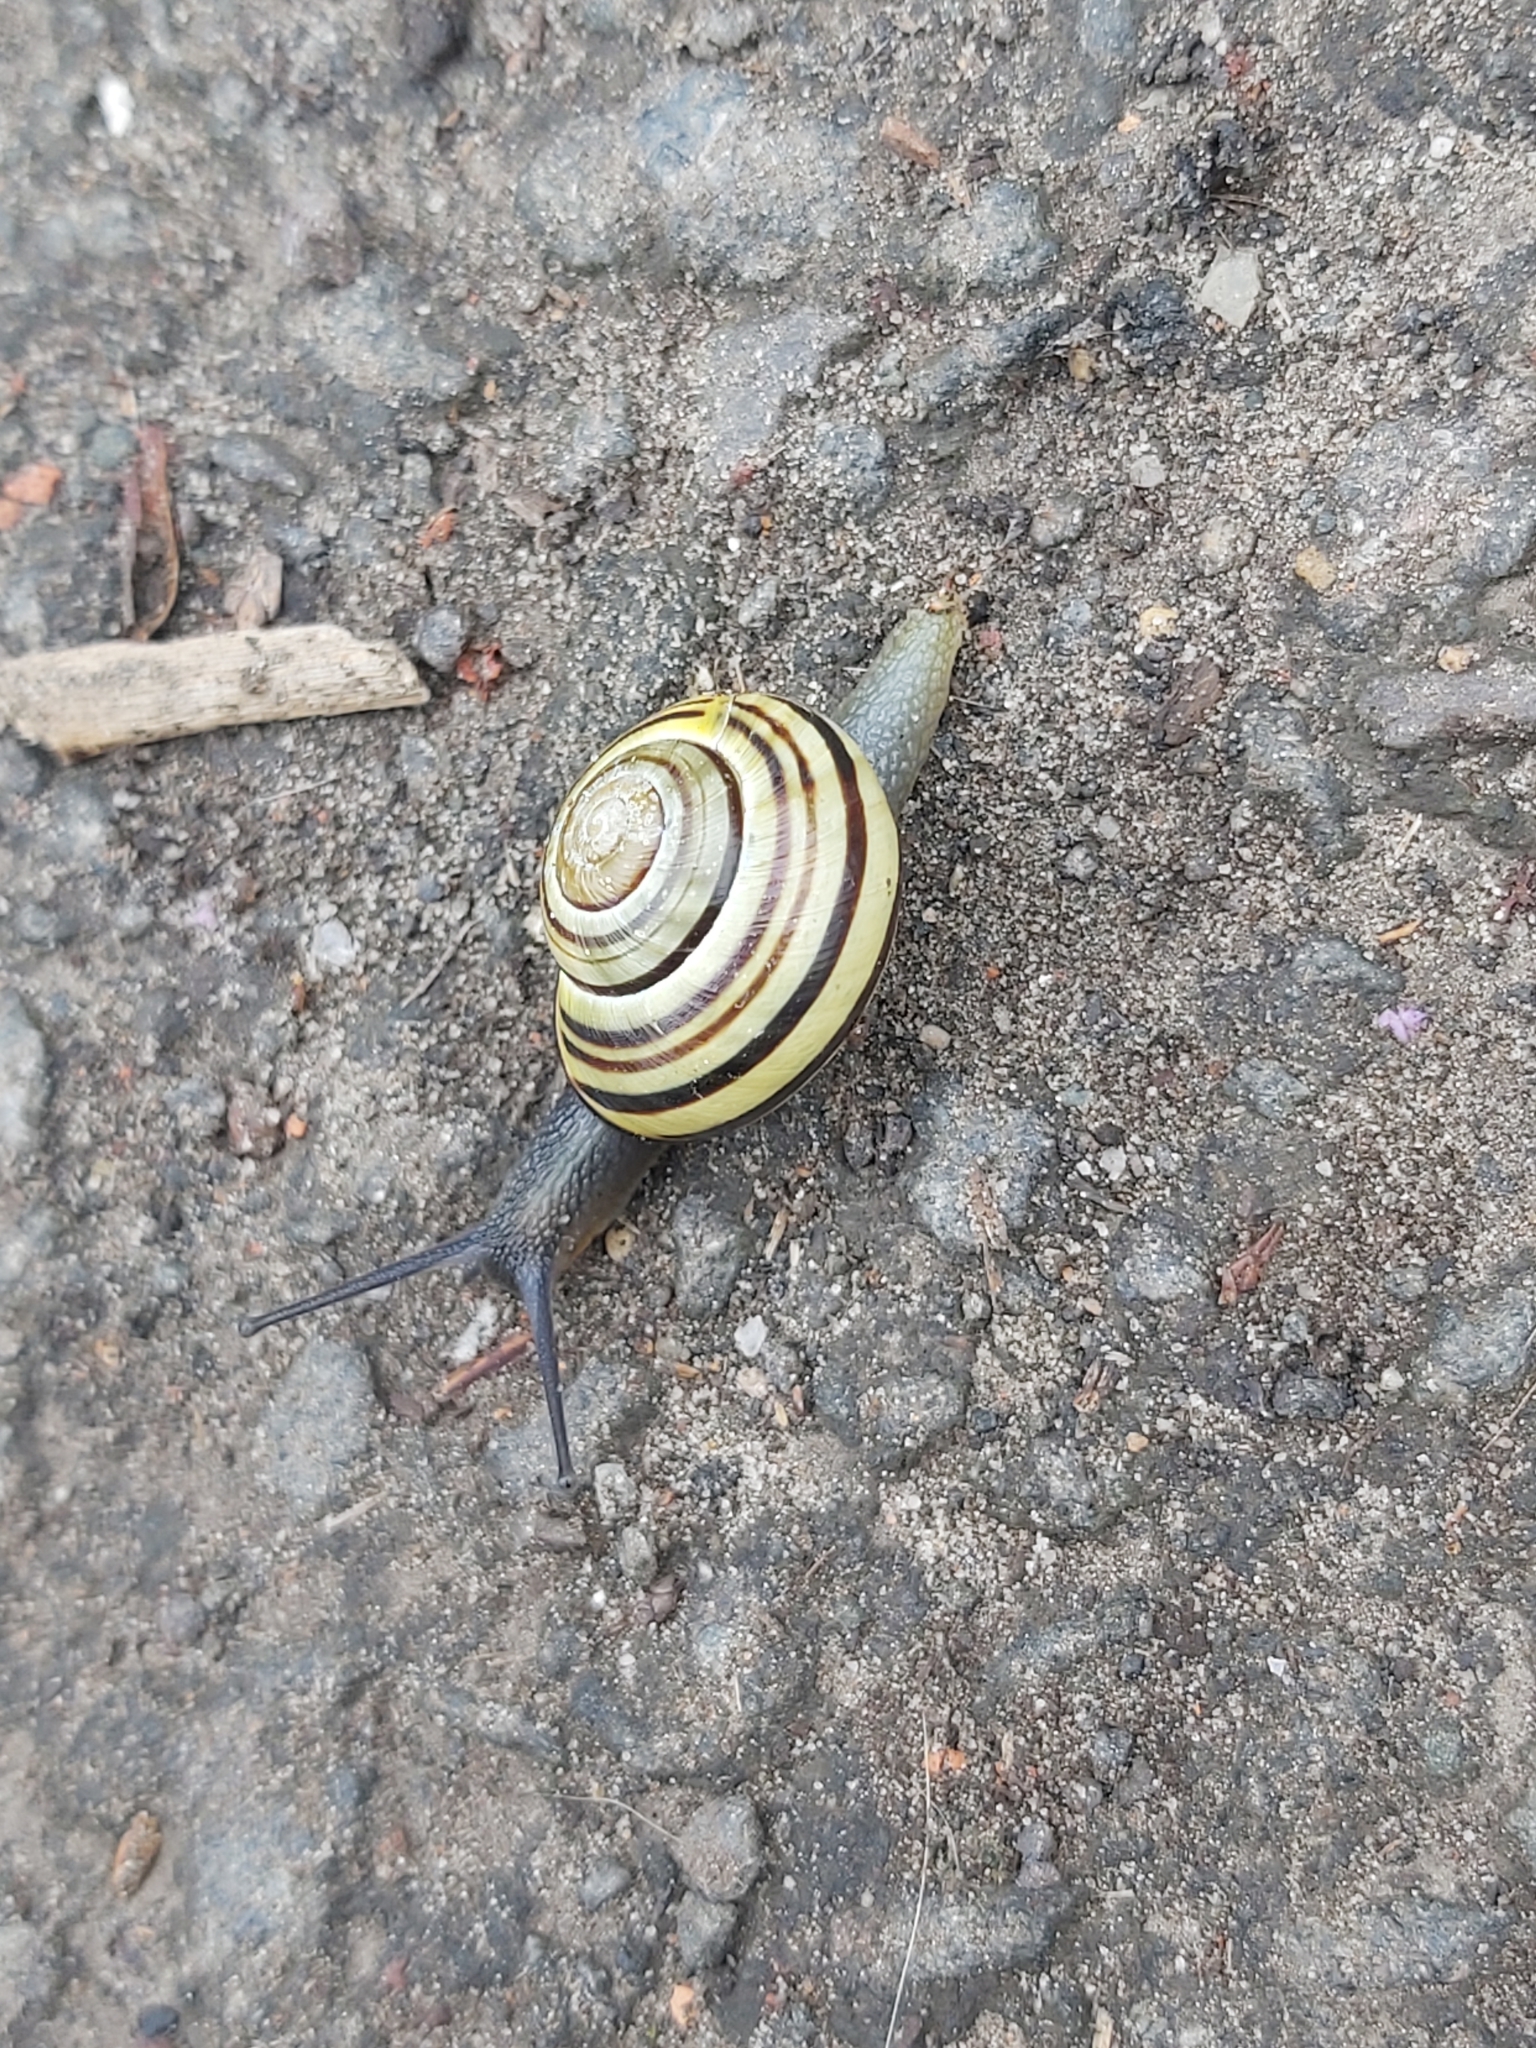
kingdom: Animalia
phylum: Mollusca
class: Gastropoda
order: Stylommatophora
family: Helicidae
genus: Cepaea
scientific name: Cepaea nemoralis
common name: Grovesnail
